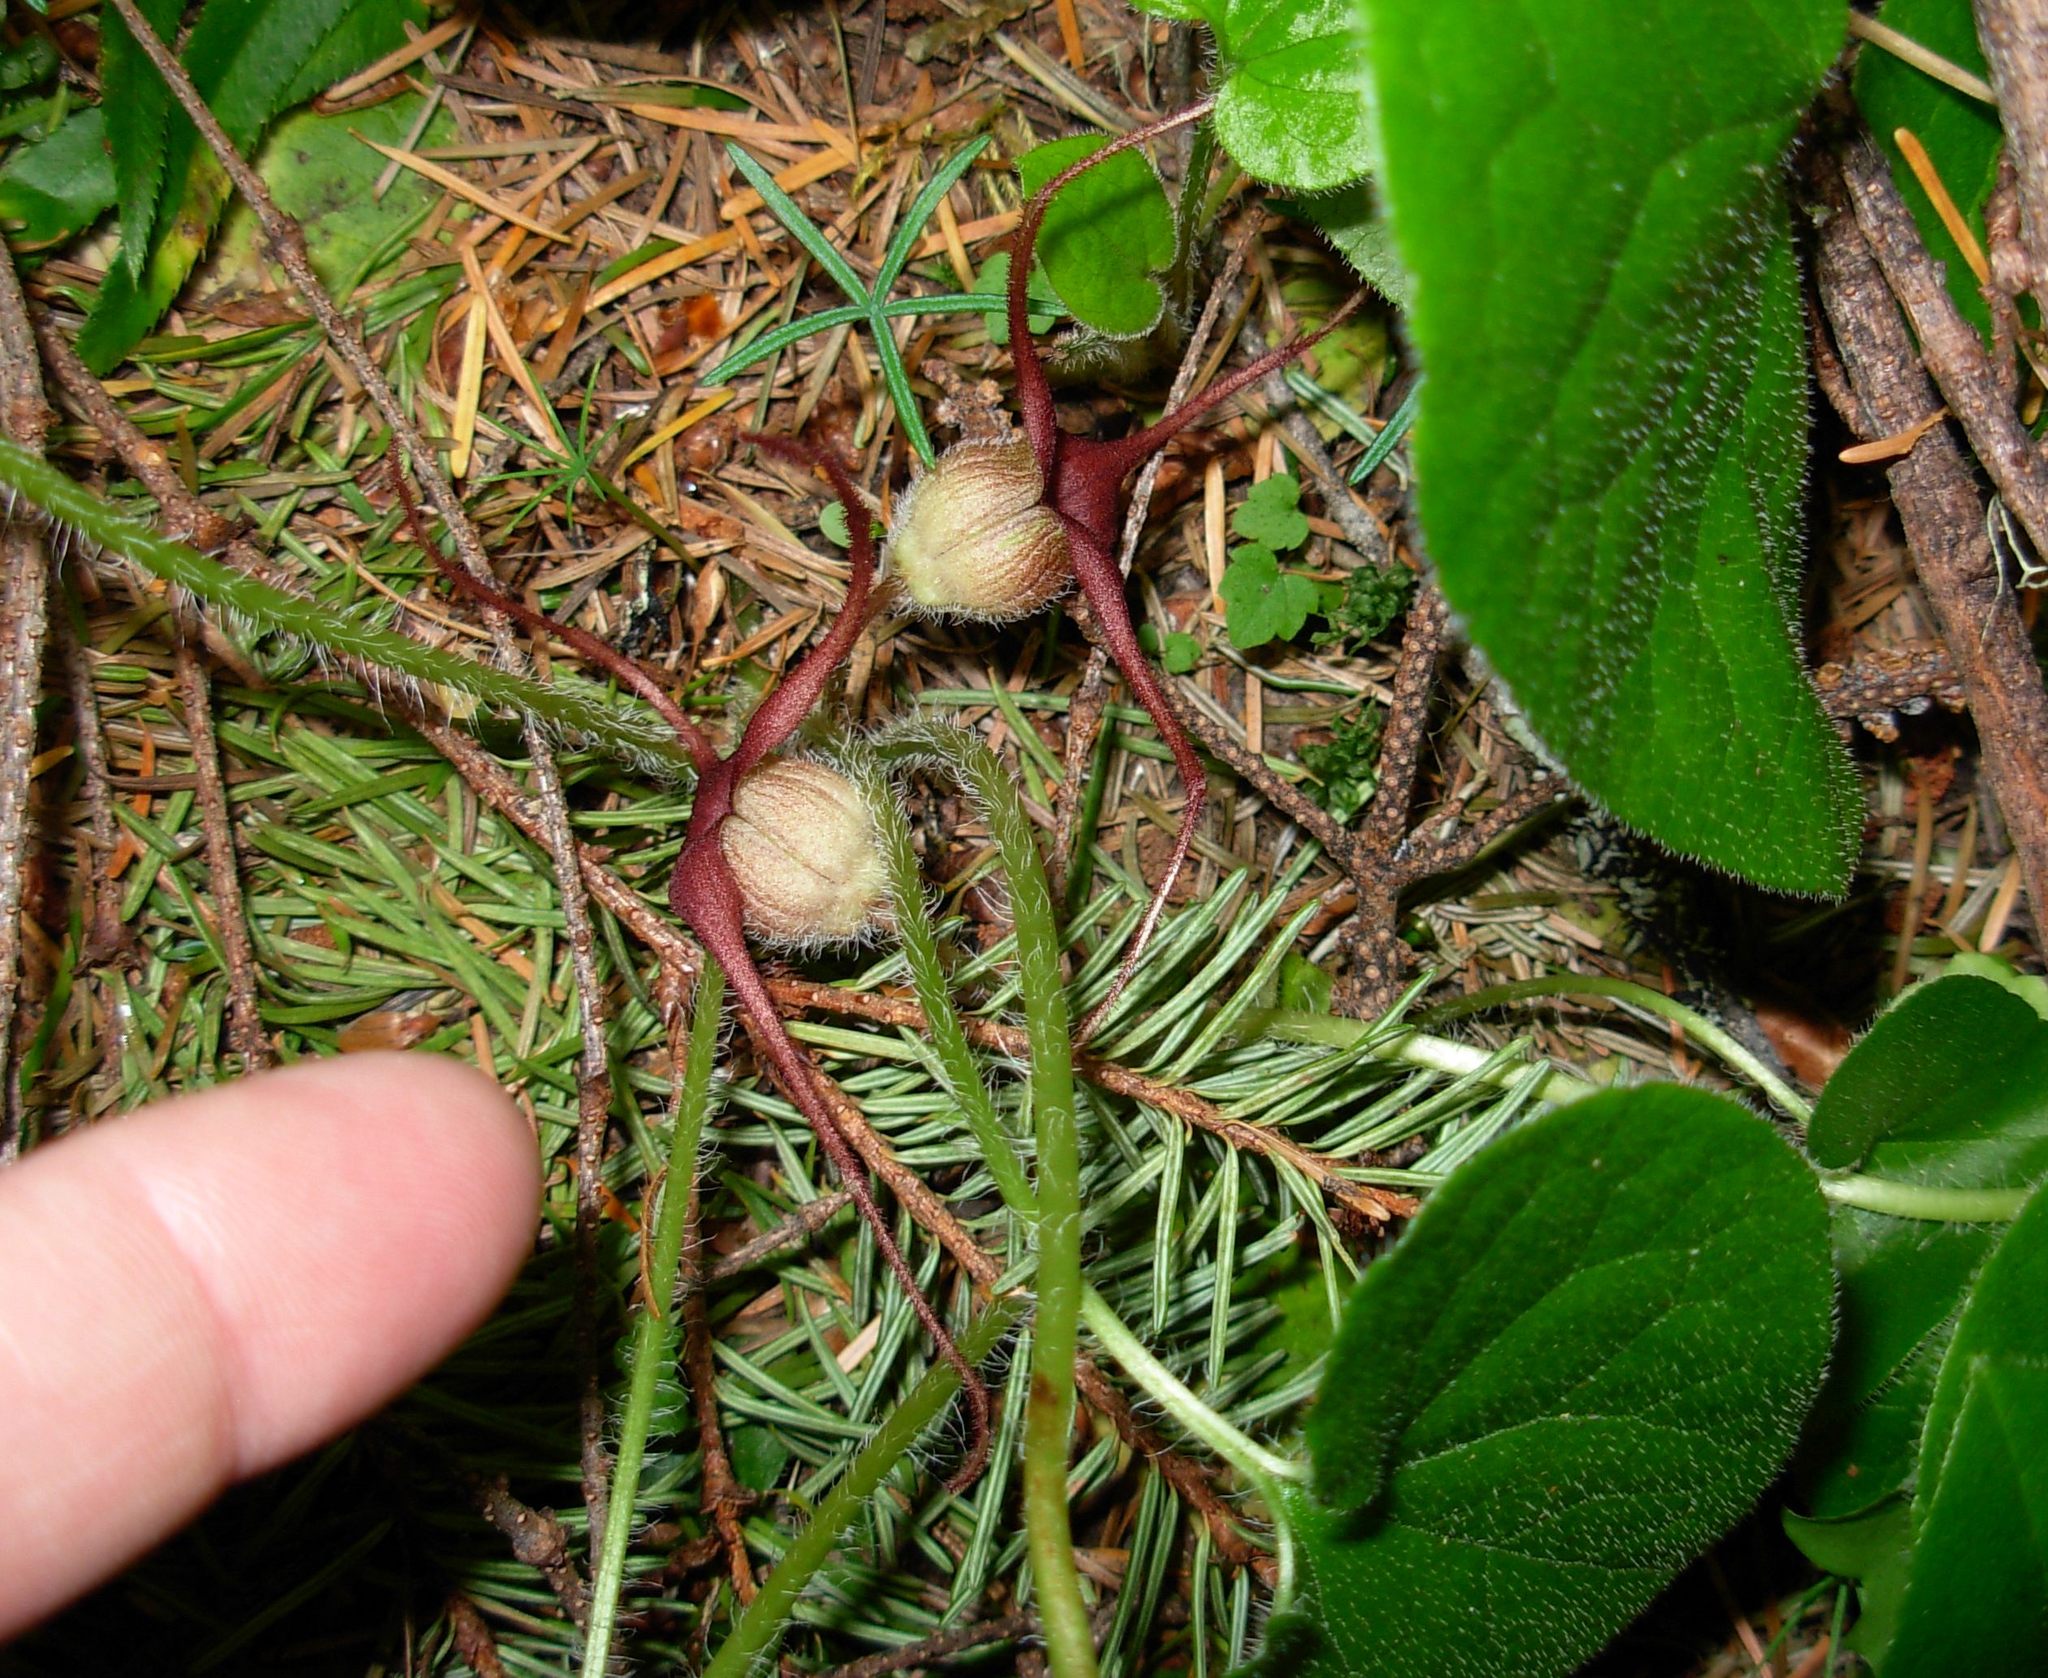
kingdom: Plantae
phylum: Tracheophyta
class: Magnoliopsida
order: Piperales
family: Aristolochiaceae
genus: Asarum
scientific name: Asarum caudatum
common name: Wild ginger
